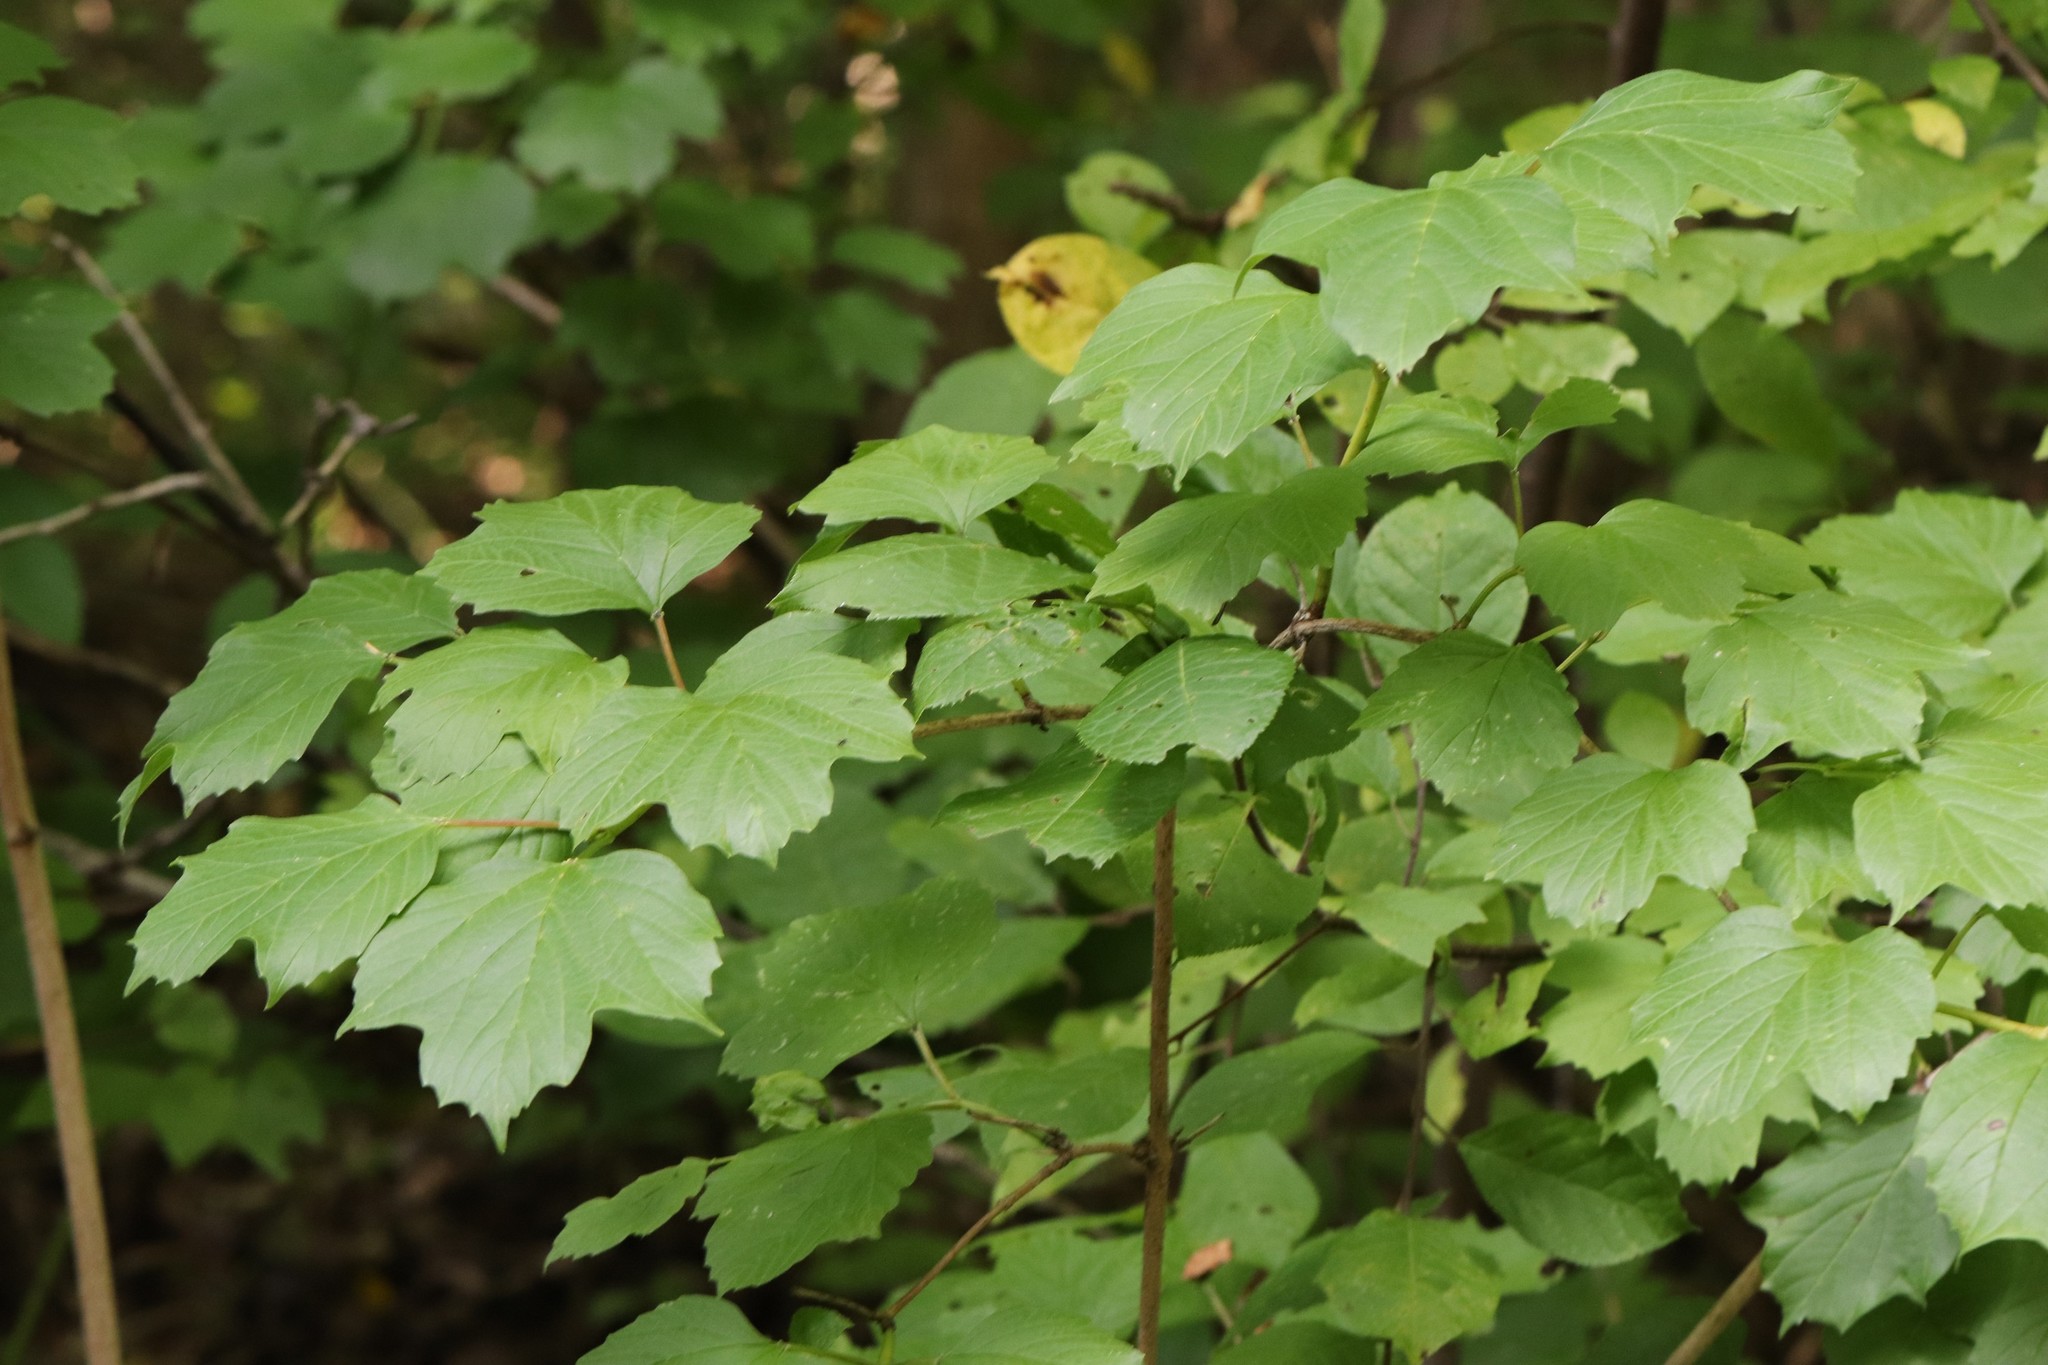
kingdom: Plantae
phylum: Tracheophyta
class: Magnoliopsida
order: Dipsacales
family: Viburnaceae
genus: Viburnum
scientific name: Viburnum sargentii
